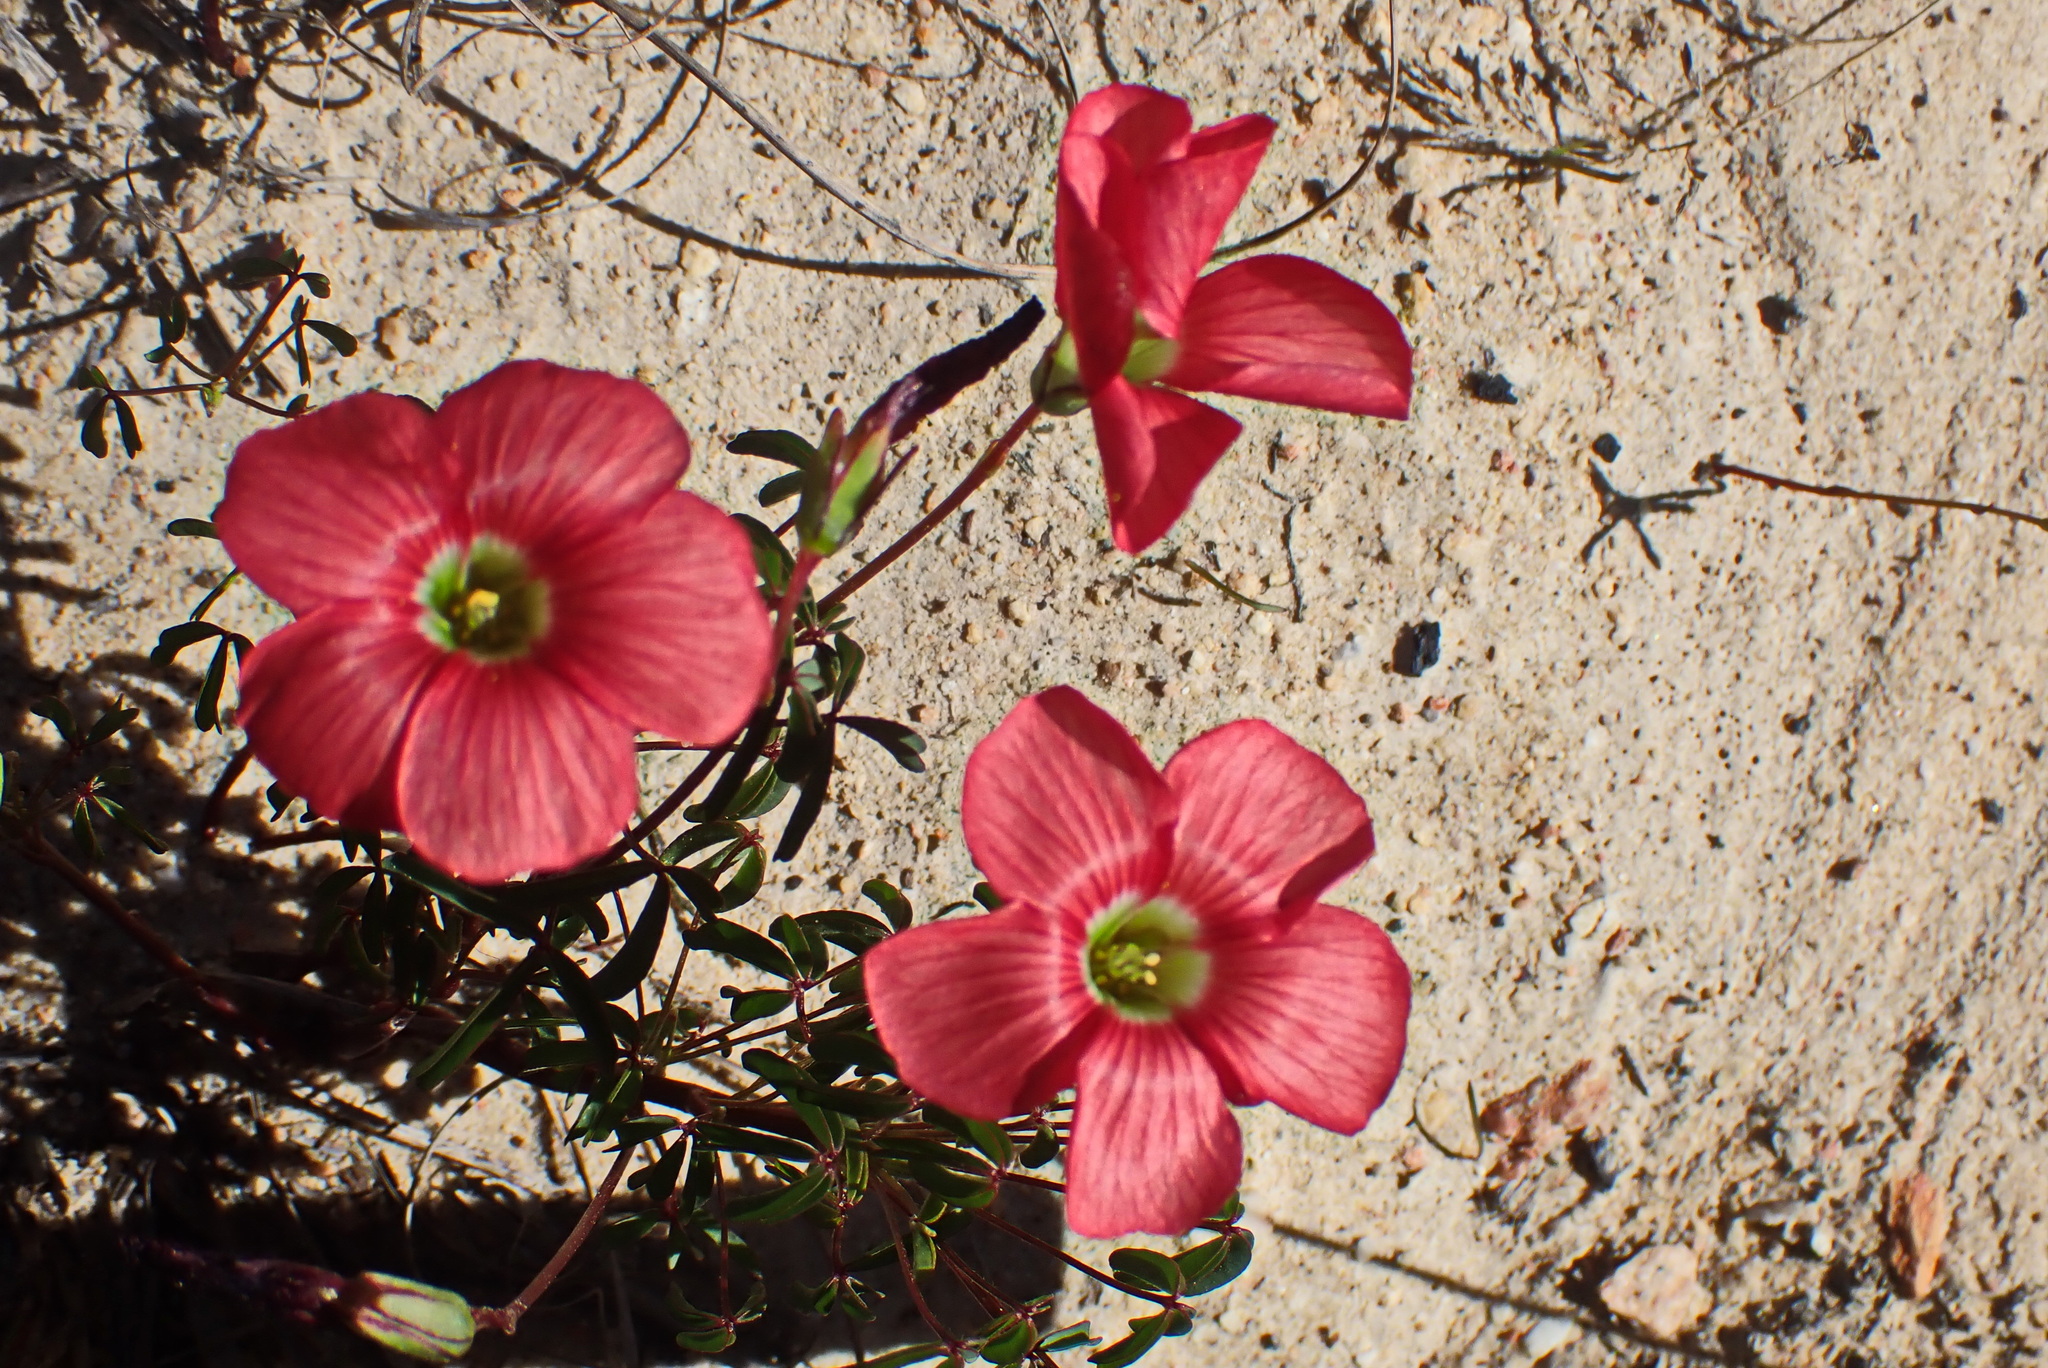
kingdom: Plantae
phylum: Tracheophyta
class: Magnoliopsida
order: Oxalidales
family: Oxalidaceae
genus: Oxalis
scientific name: Oxalis pendulifolia
